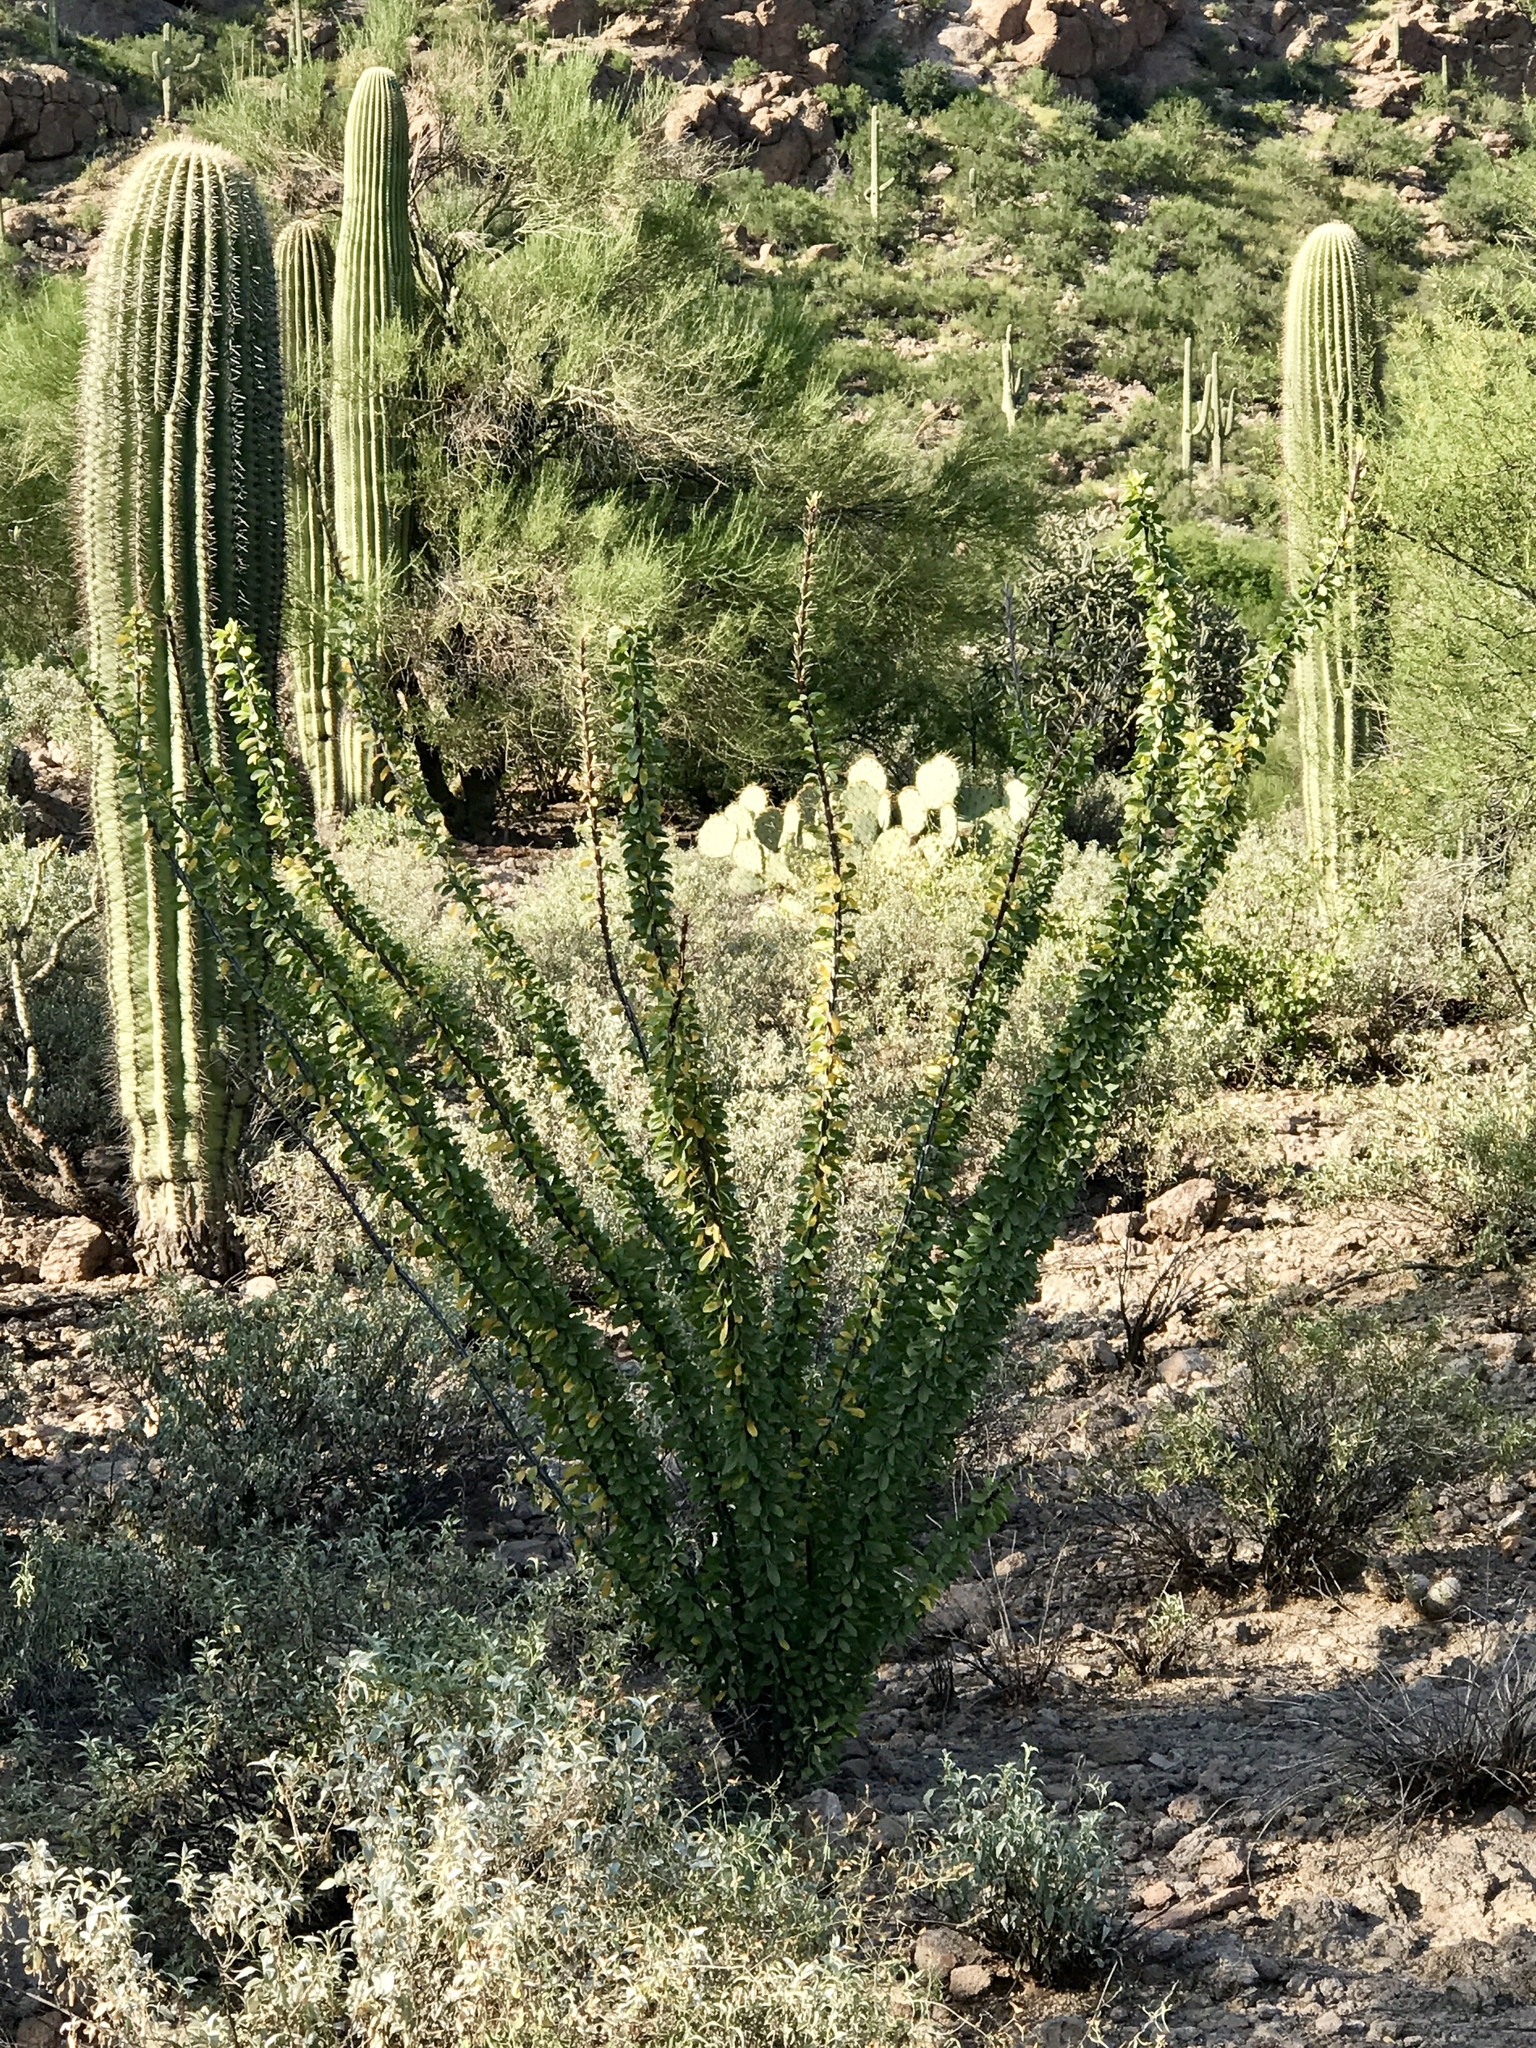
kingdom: Plantae
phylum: Tracheophyta
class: Magnoliopsida
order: Ericales
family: Fouquieriaceae
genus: Fouquieria
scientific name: Fouquieria splendens
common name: Vine-cactus
